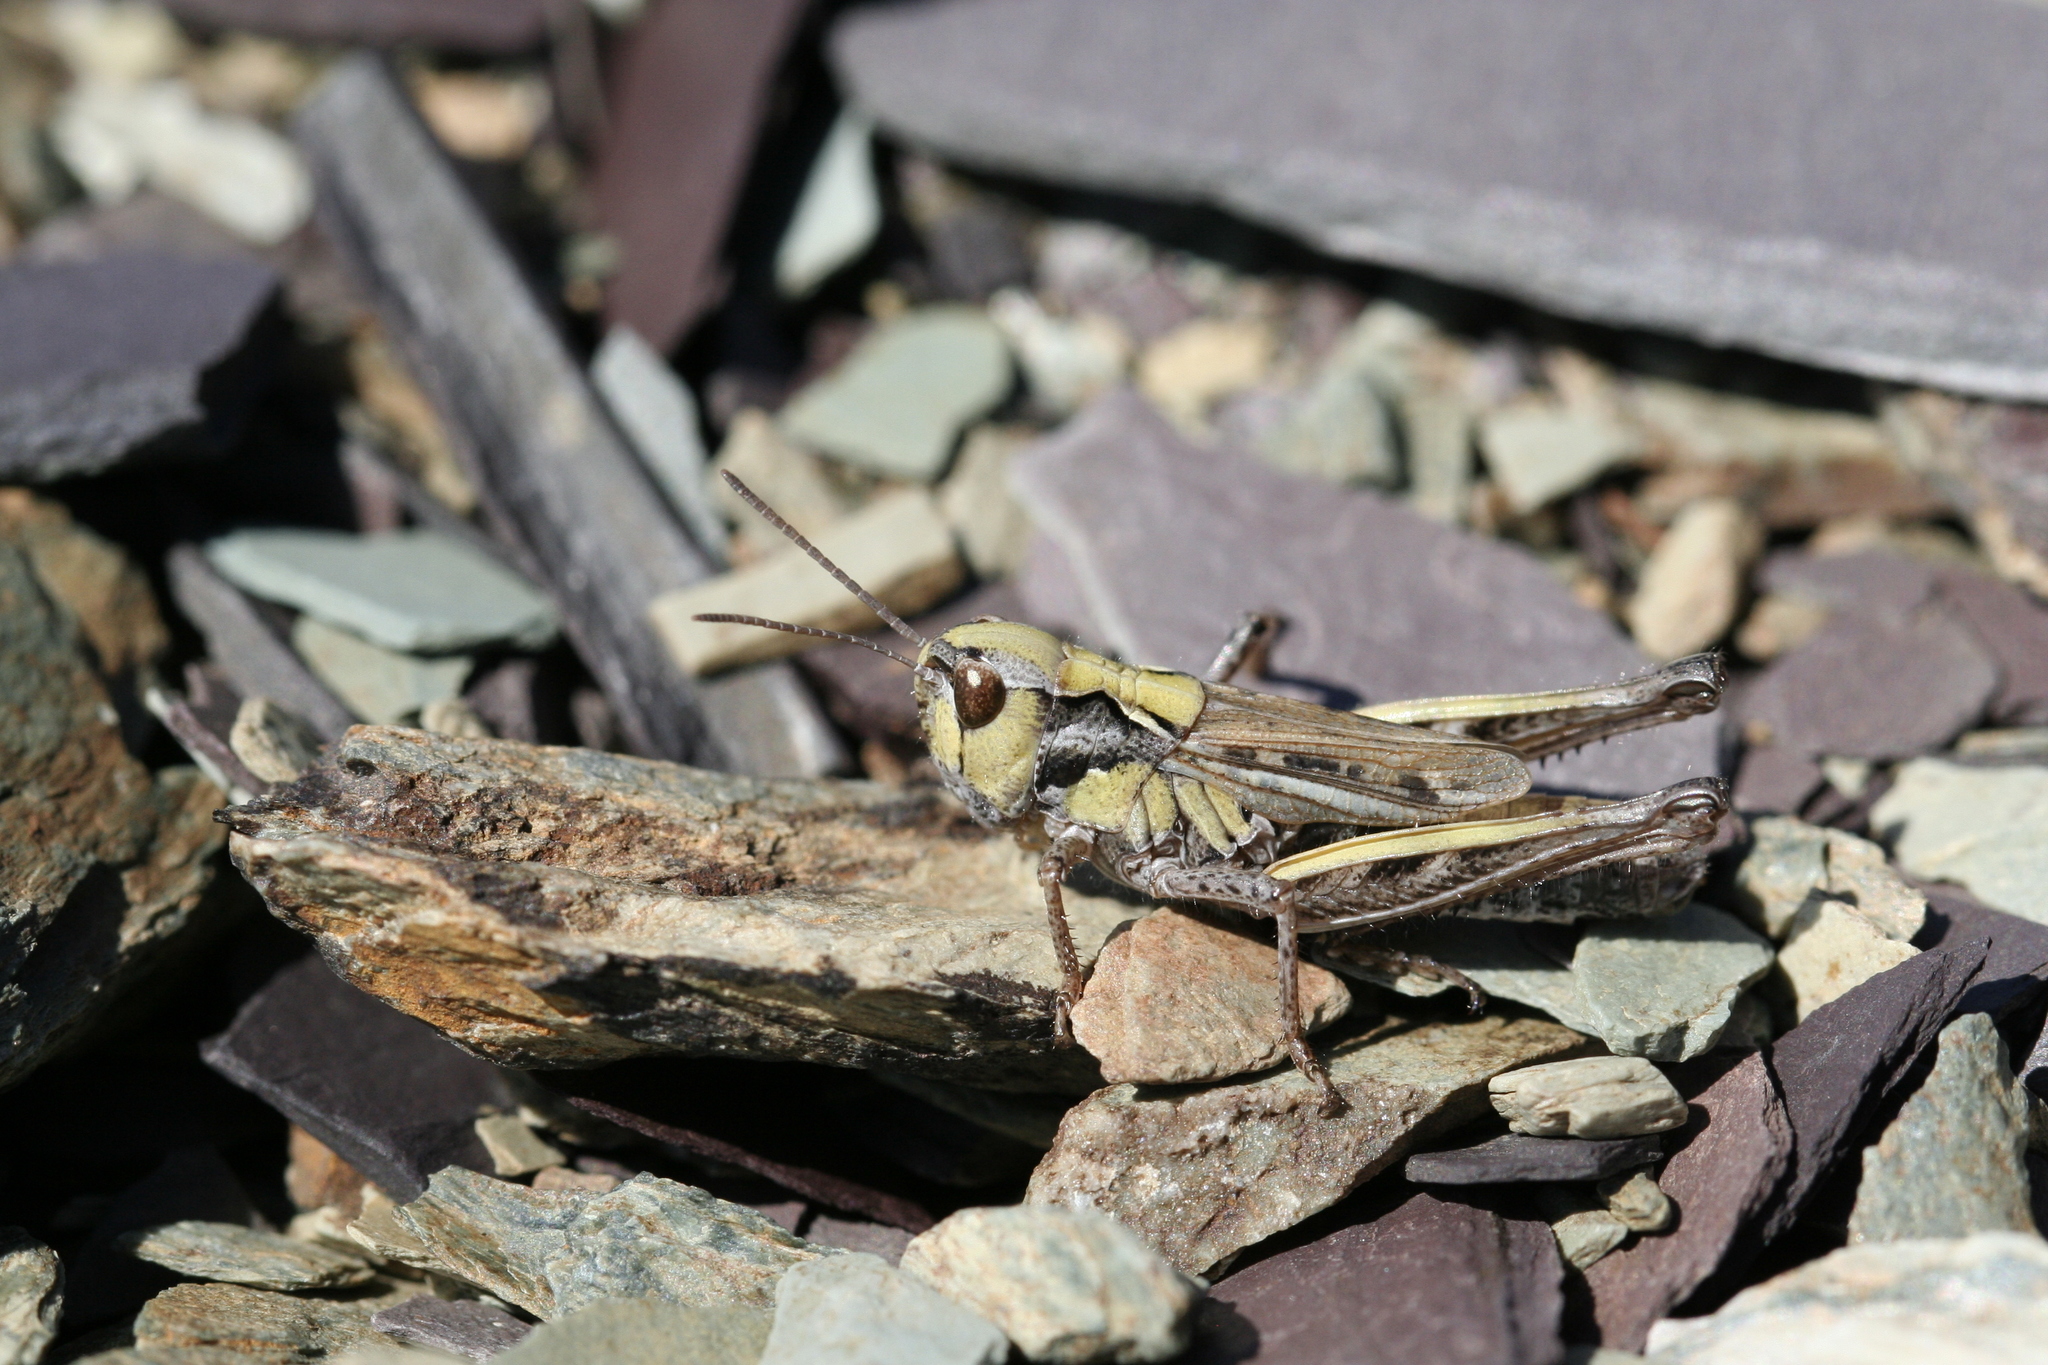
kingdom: Animalia
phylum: Arthropoda
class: Insecta
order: Orthoptera
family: Acrididae
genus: Aeropedellus
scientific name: Aeropedellus arcticus
